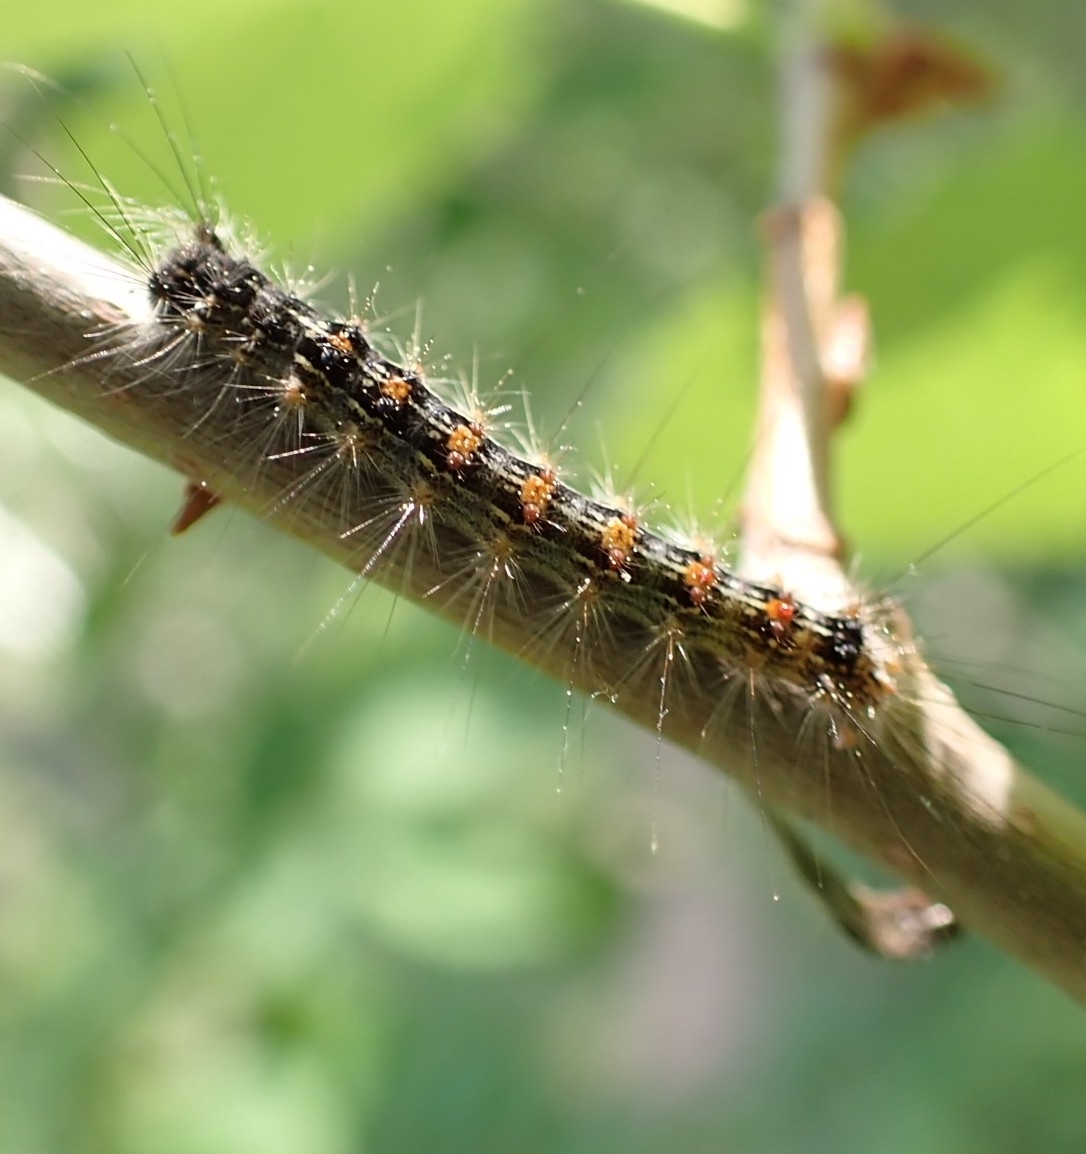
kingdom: Animalia
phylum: Arthropoda
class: Insecta
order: Lepidoptera
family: Erebidae
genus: Lymantria
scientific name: Lymantria dispar
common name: Gypsy moth
